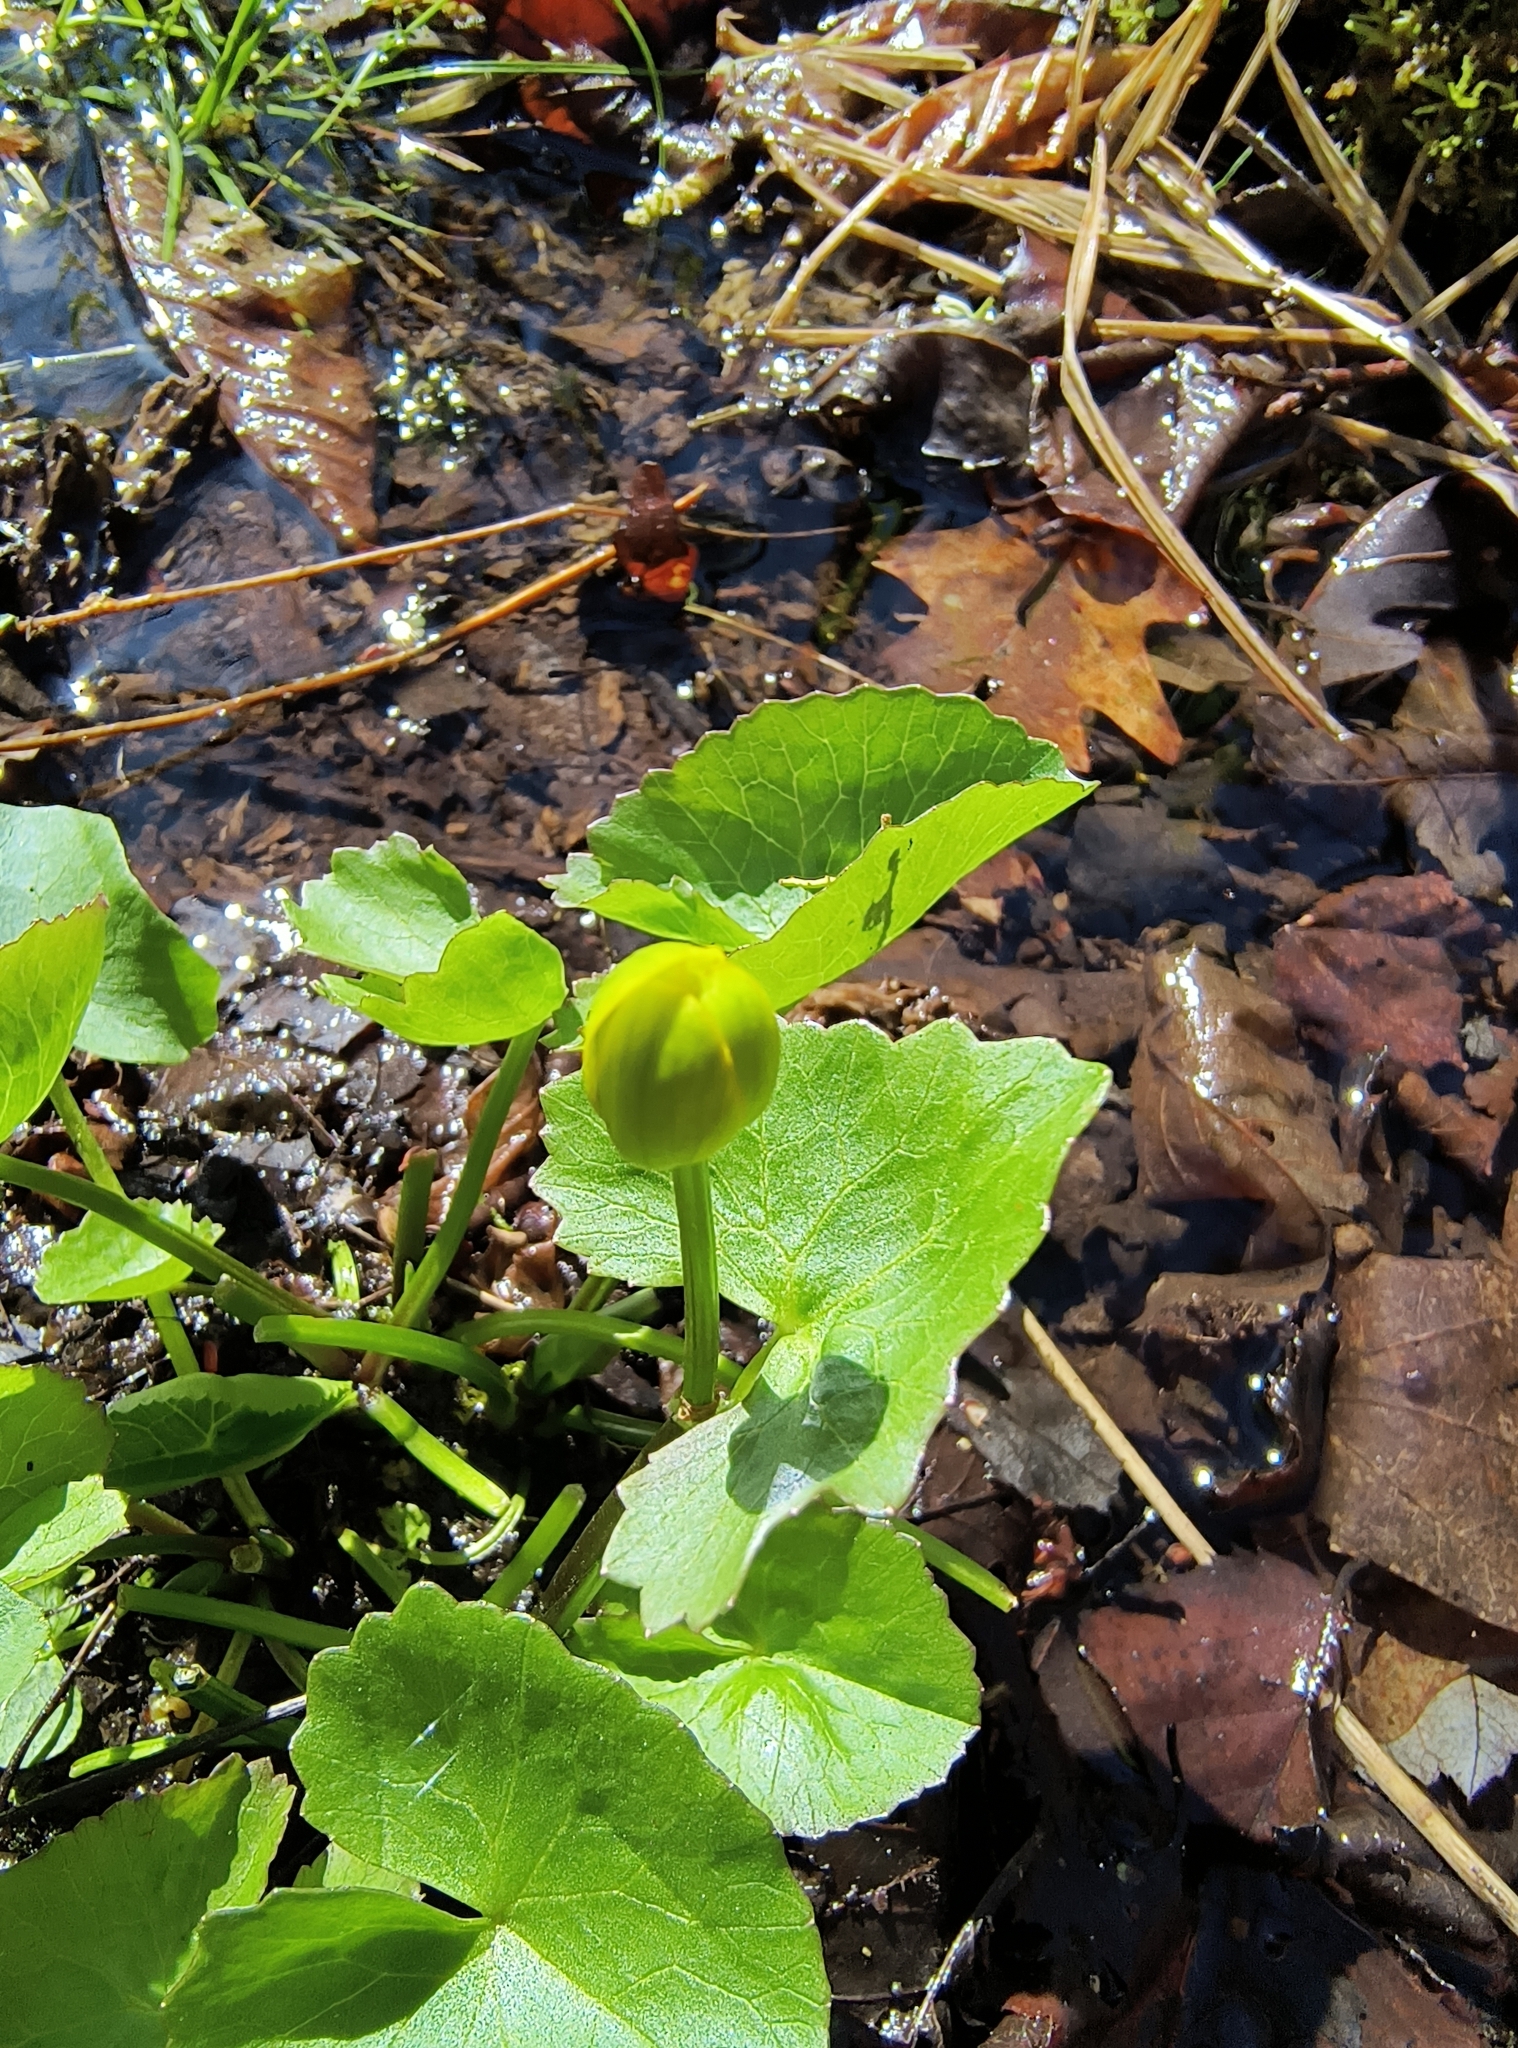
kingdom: Plantae
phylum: Tracheophyta
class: Magnoliopsida
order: Ranunculales
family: Ranunculaceae
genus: Caltha
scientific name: Caltha palustris
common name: Marsh marigold
